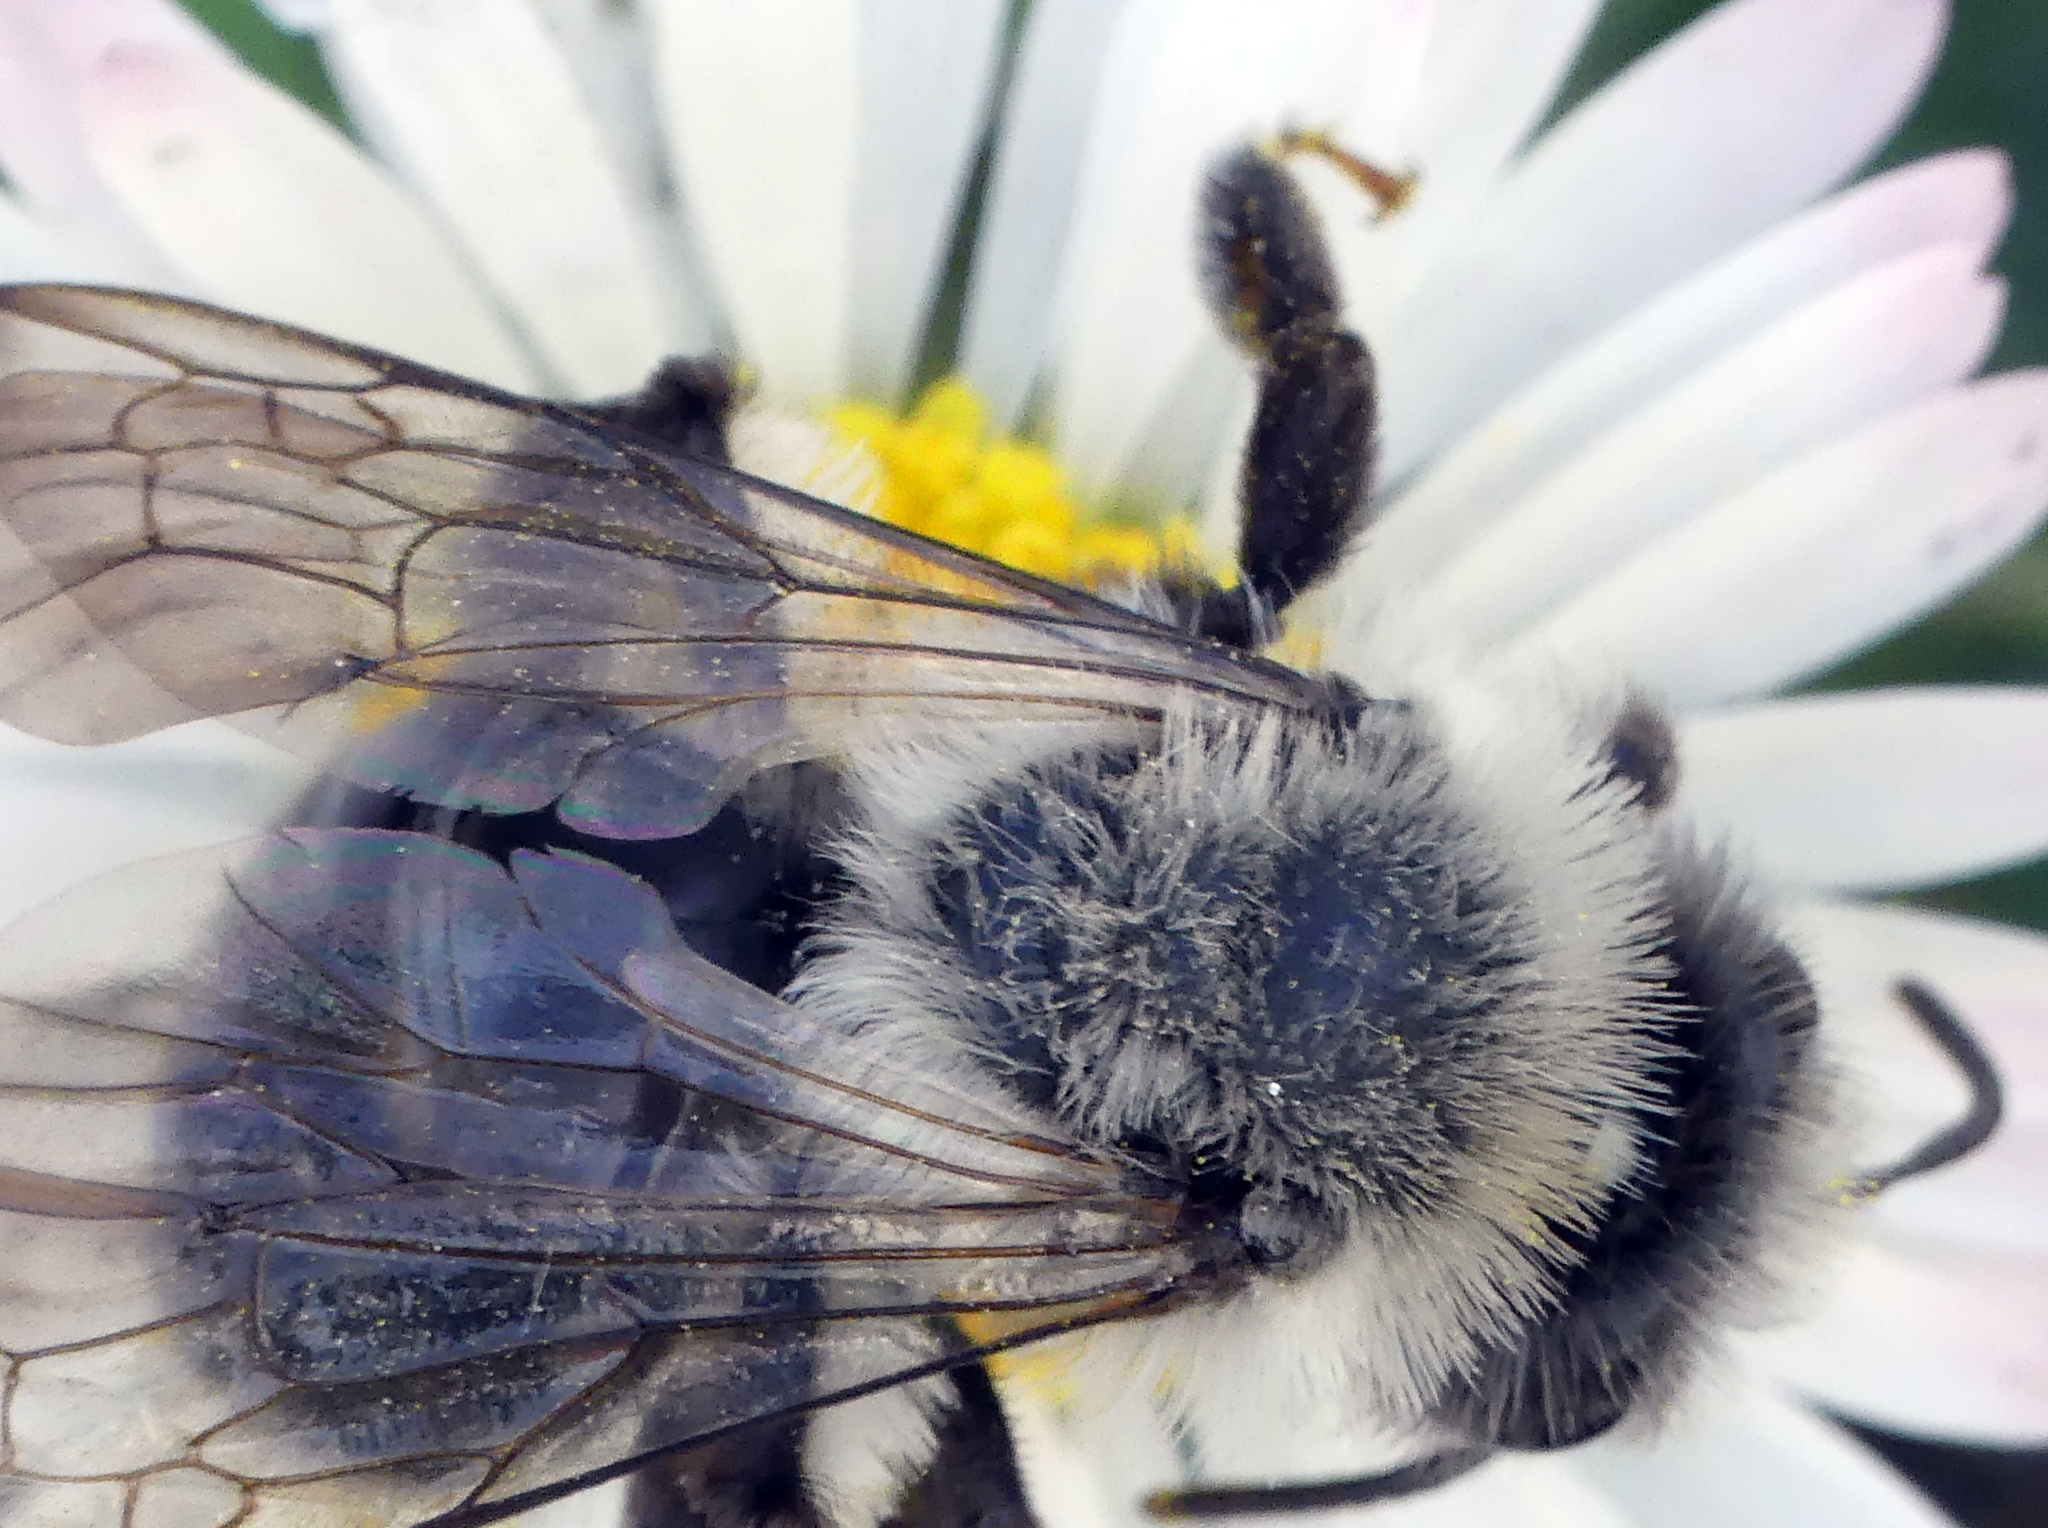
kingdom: Animalia
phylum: Arthropoda
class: Insecta
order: Hymenoptera
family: Andrenidae
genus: Andrena
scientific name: Andrena vaga
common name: Grey-backed mining bee
